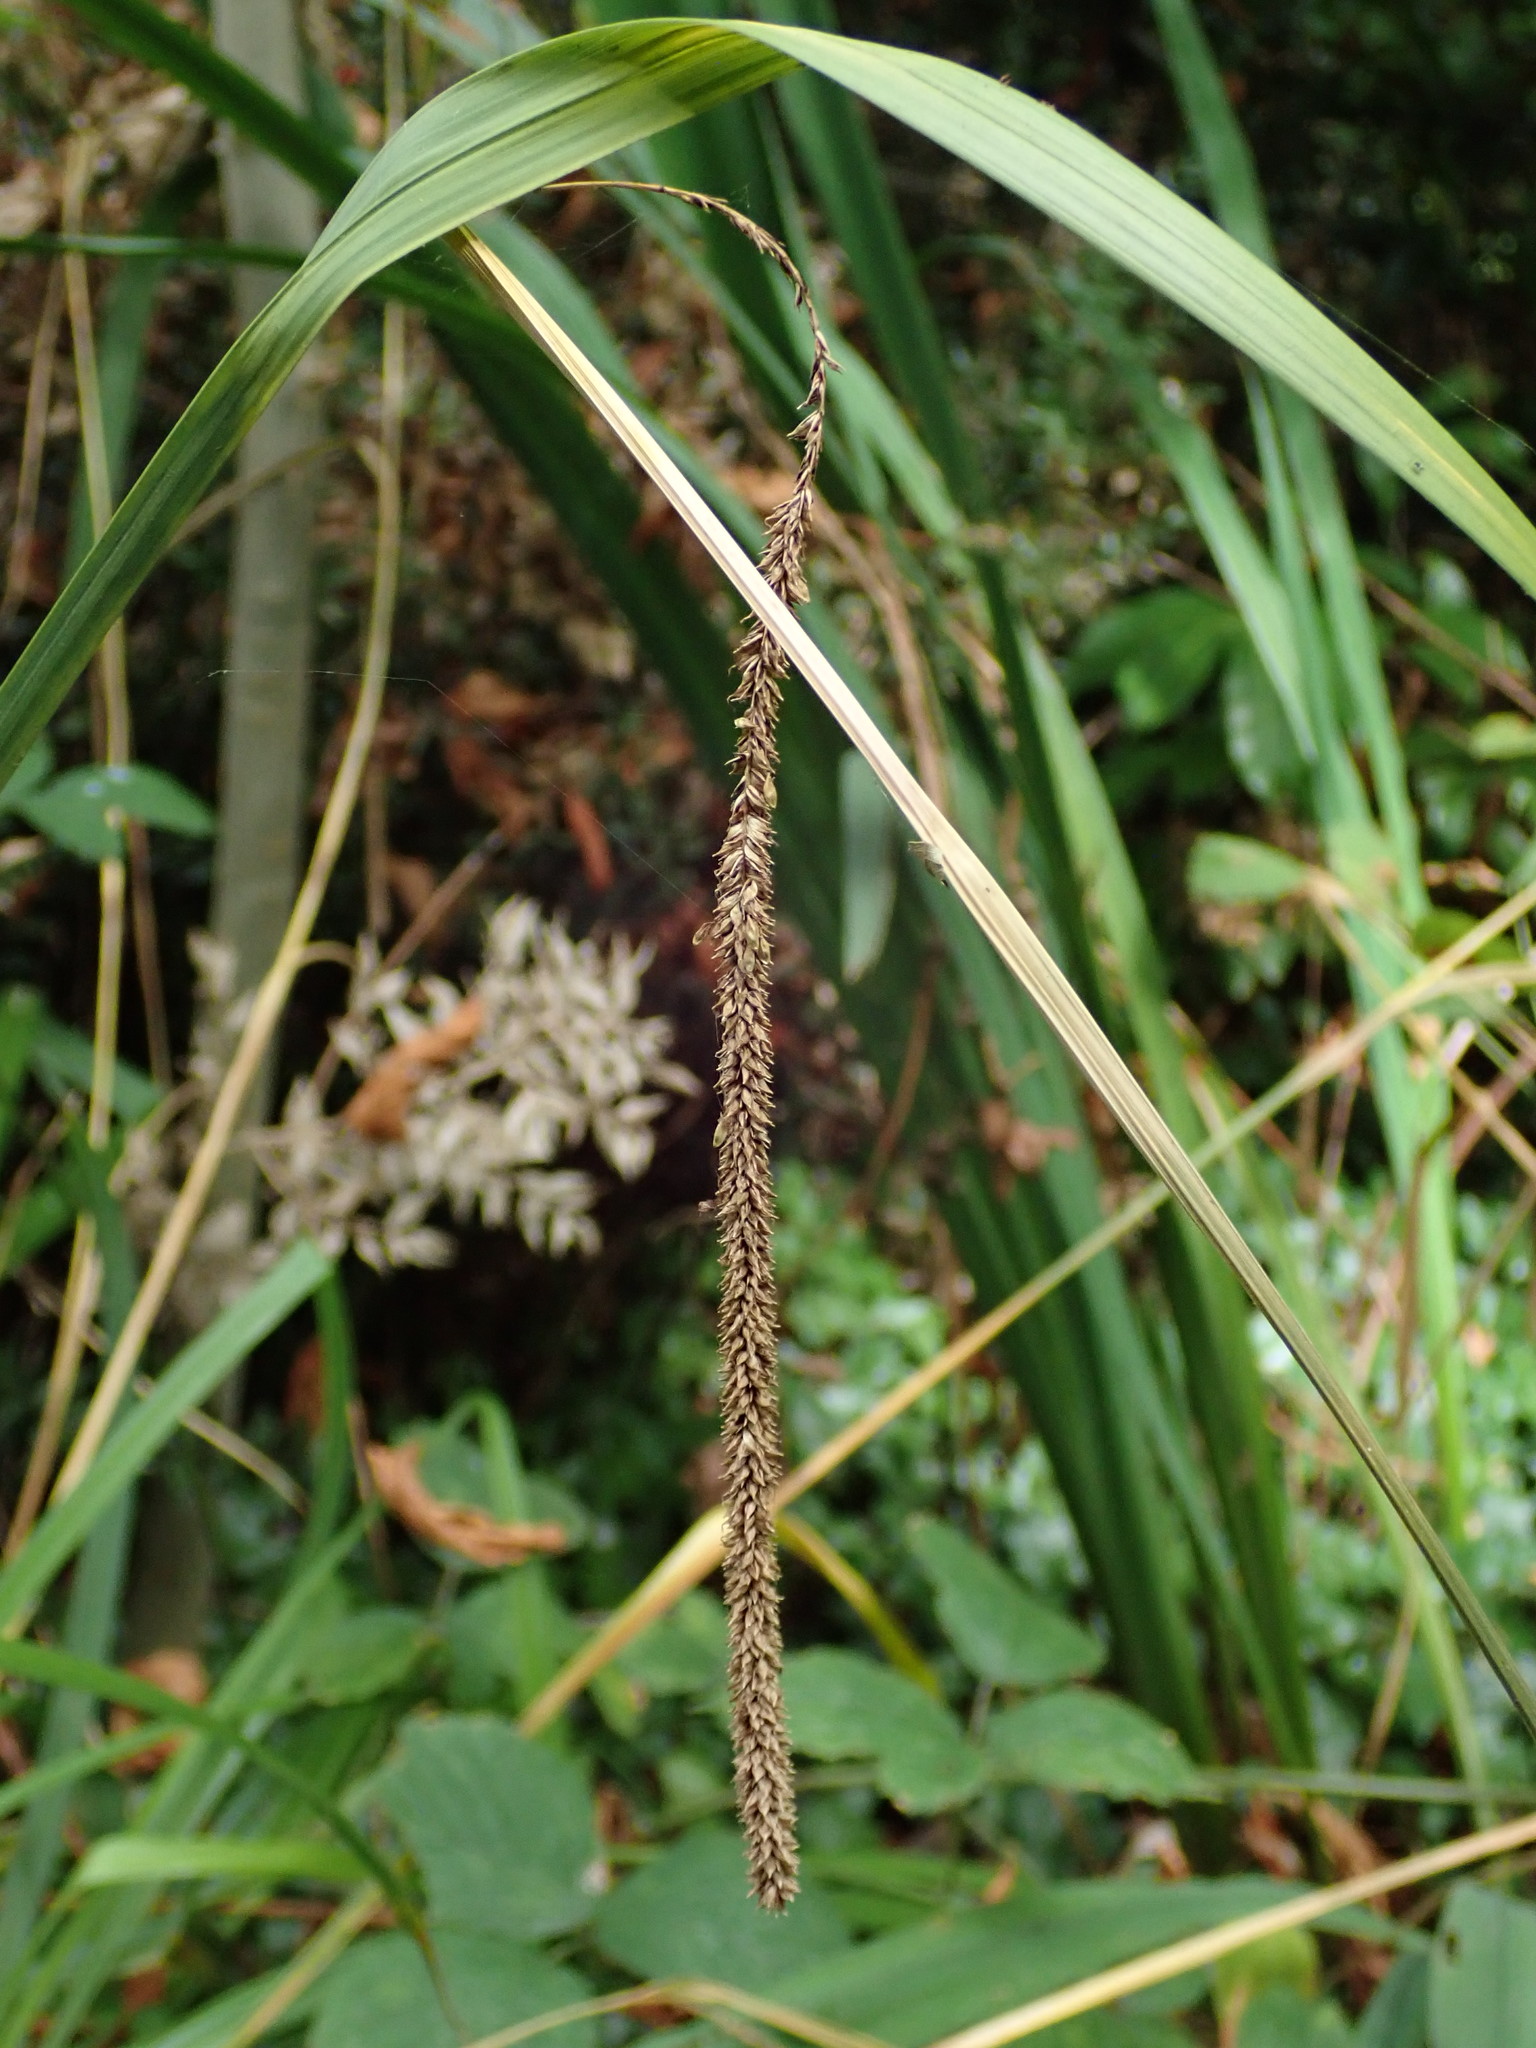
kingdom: Plantae
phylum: Tracheophyta
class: Liliopsida
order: Poales
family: Cyperaceae
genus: Carex
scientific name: Carex pendula
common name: Pendulous sedge
